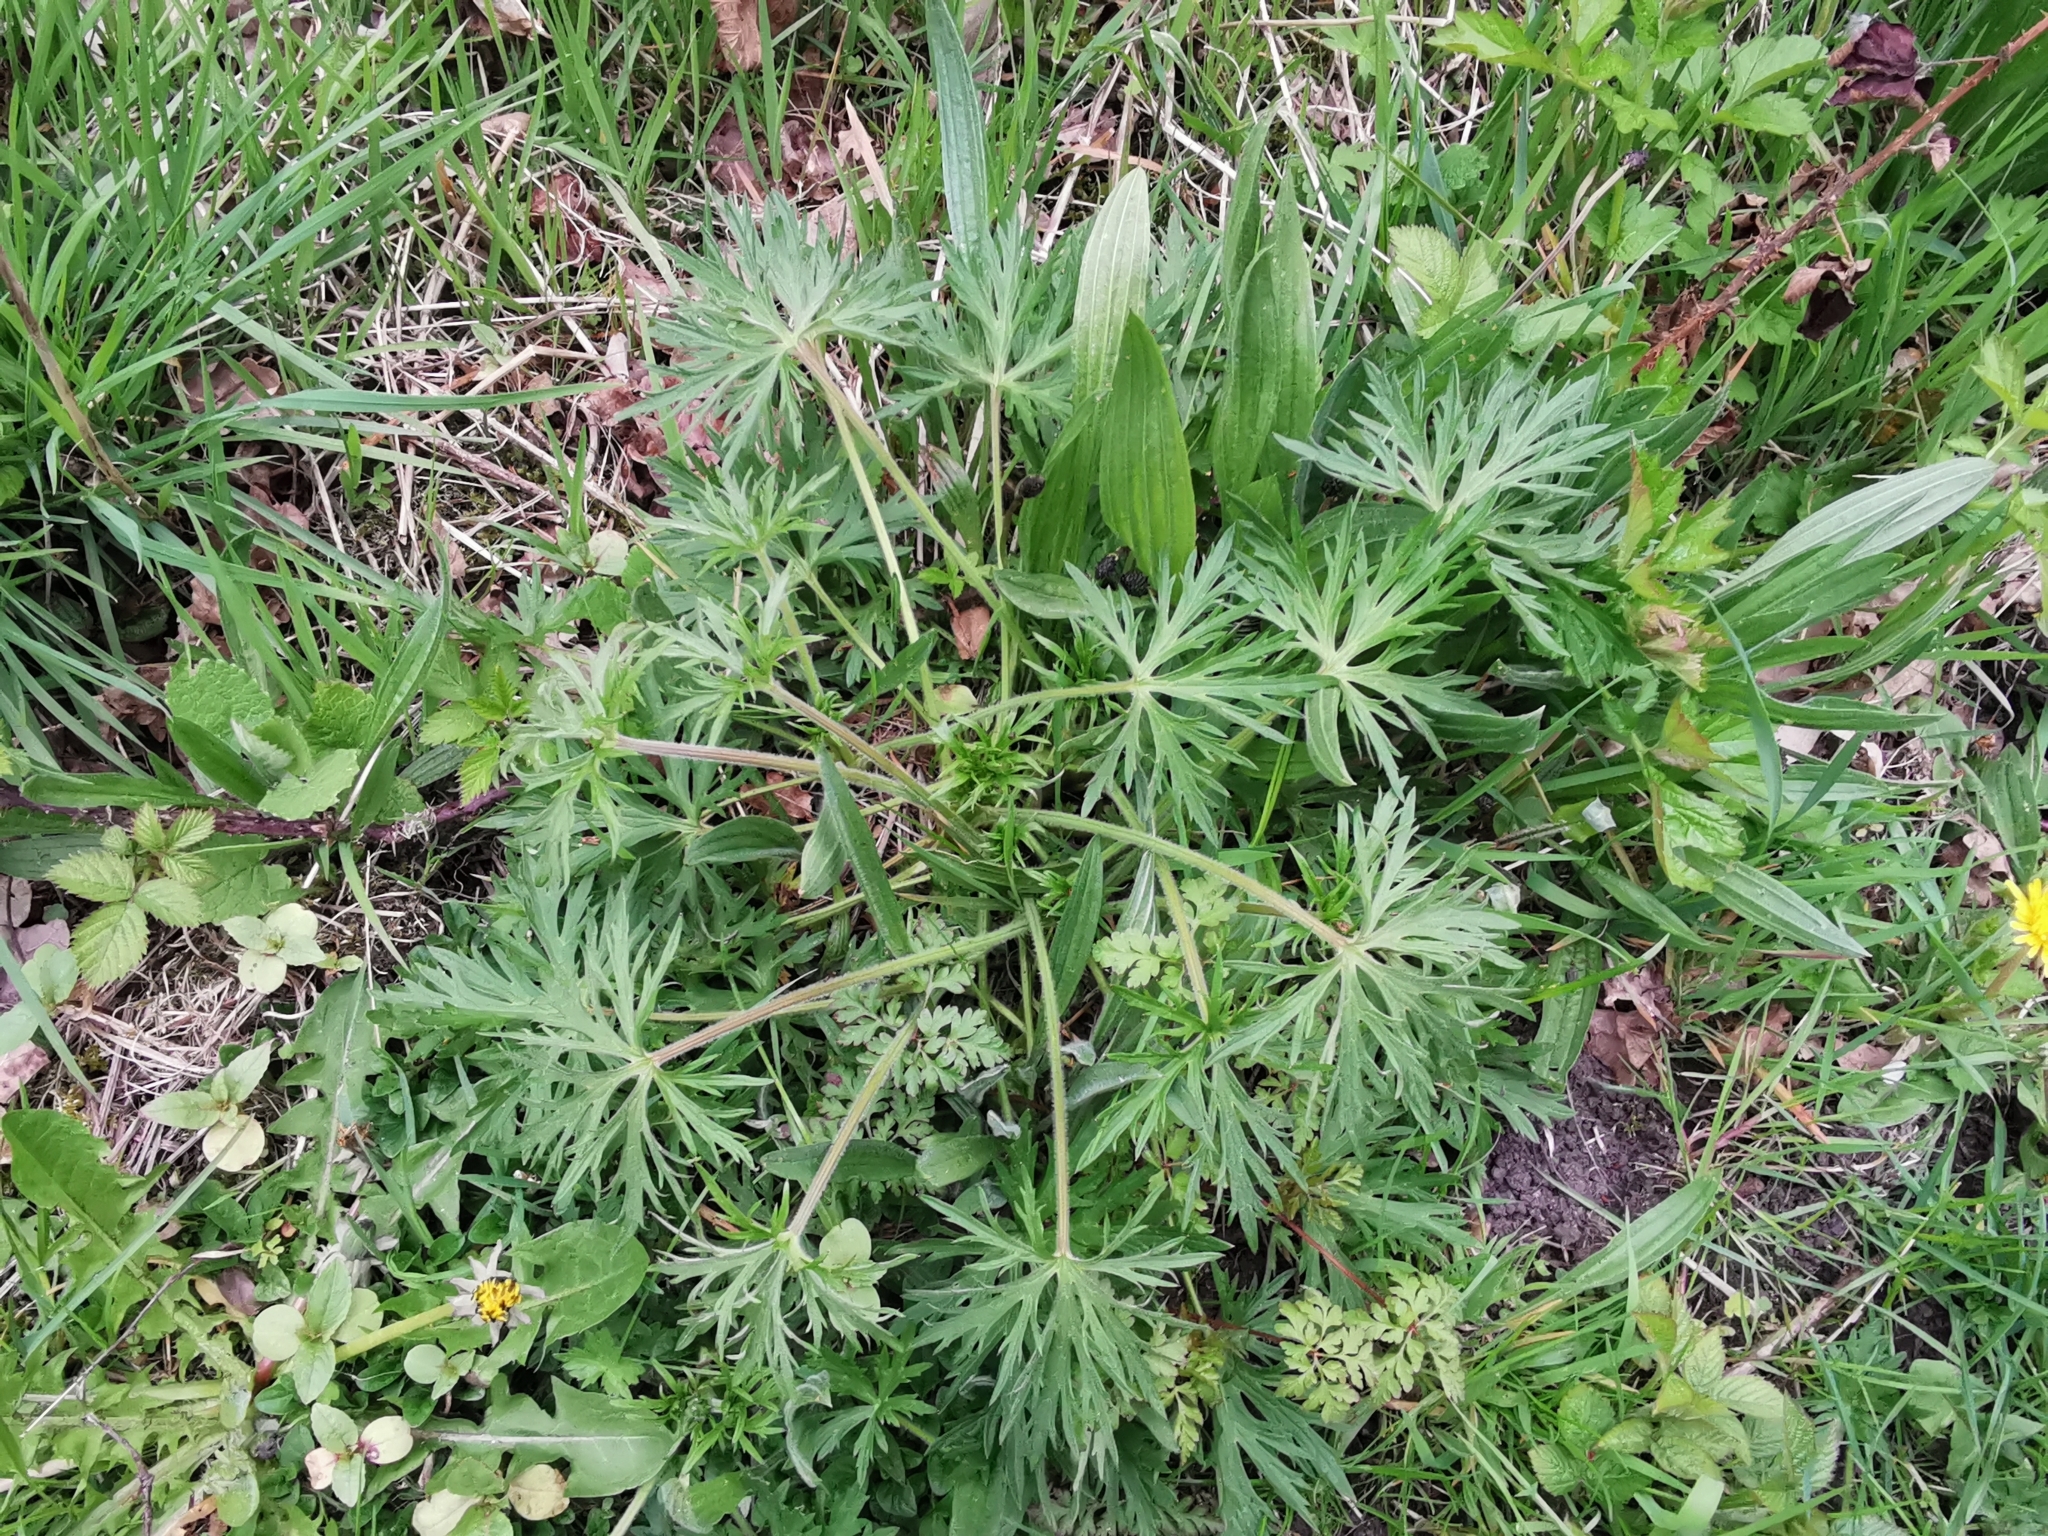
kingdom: Plantae
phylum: Tracheophyta
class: Magnoliopsida
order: Geraniales
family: Geraniaceae
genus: Geranium
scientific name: Geranium dissectum
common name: Cut-leaved crane's-bill
